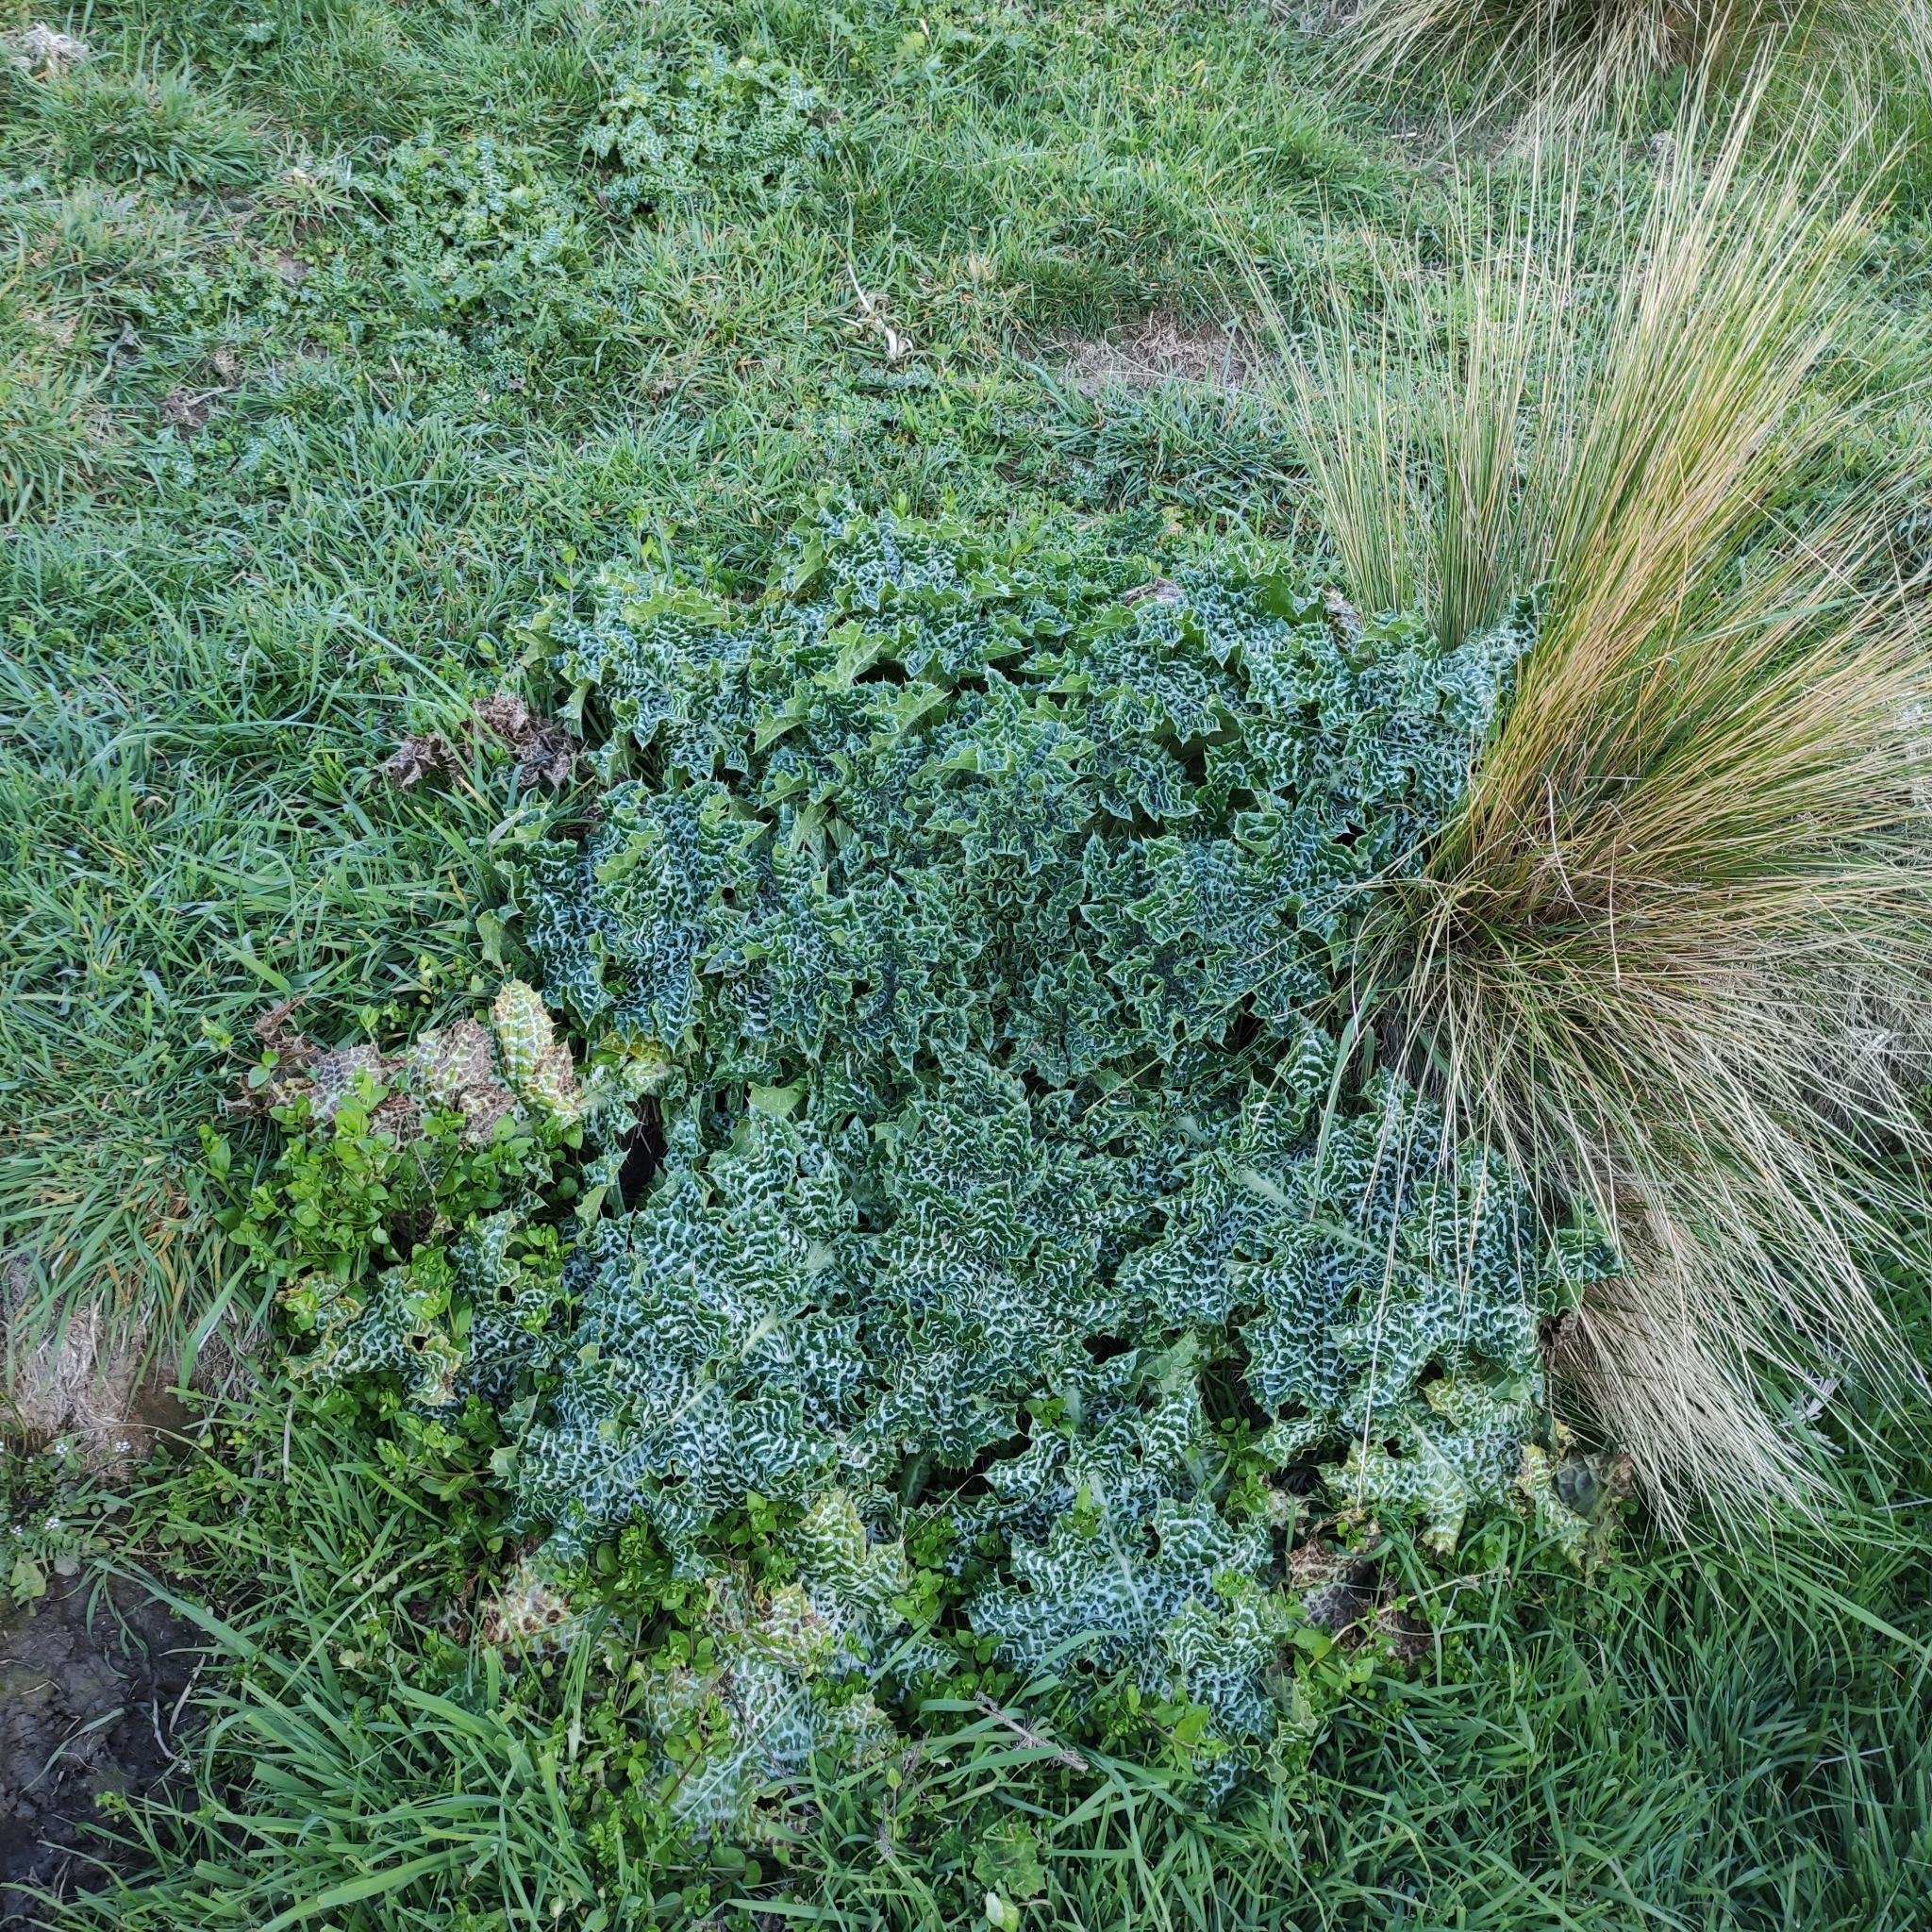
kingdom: Plantae
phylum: Tracheophyta
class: Magnoliopsida
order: Asterales
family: Asteraceae
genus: Silybum
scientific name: Silybum marianum
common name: Milk thistle
